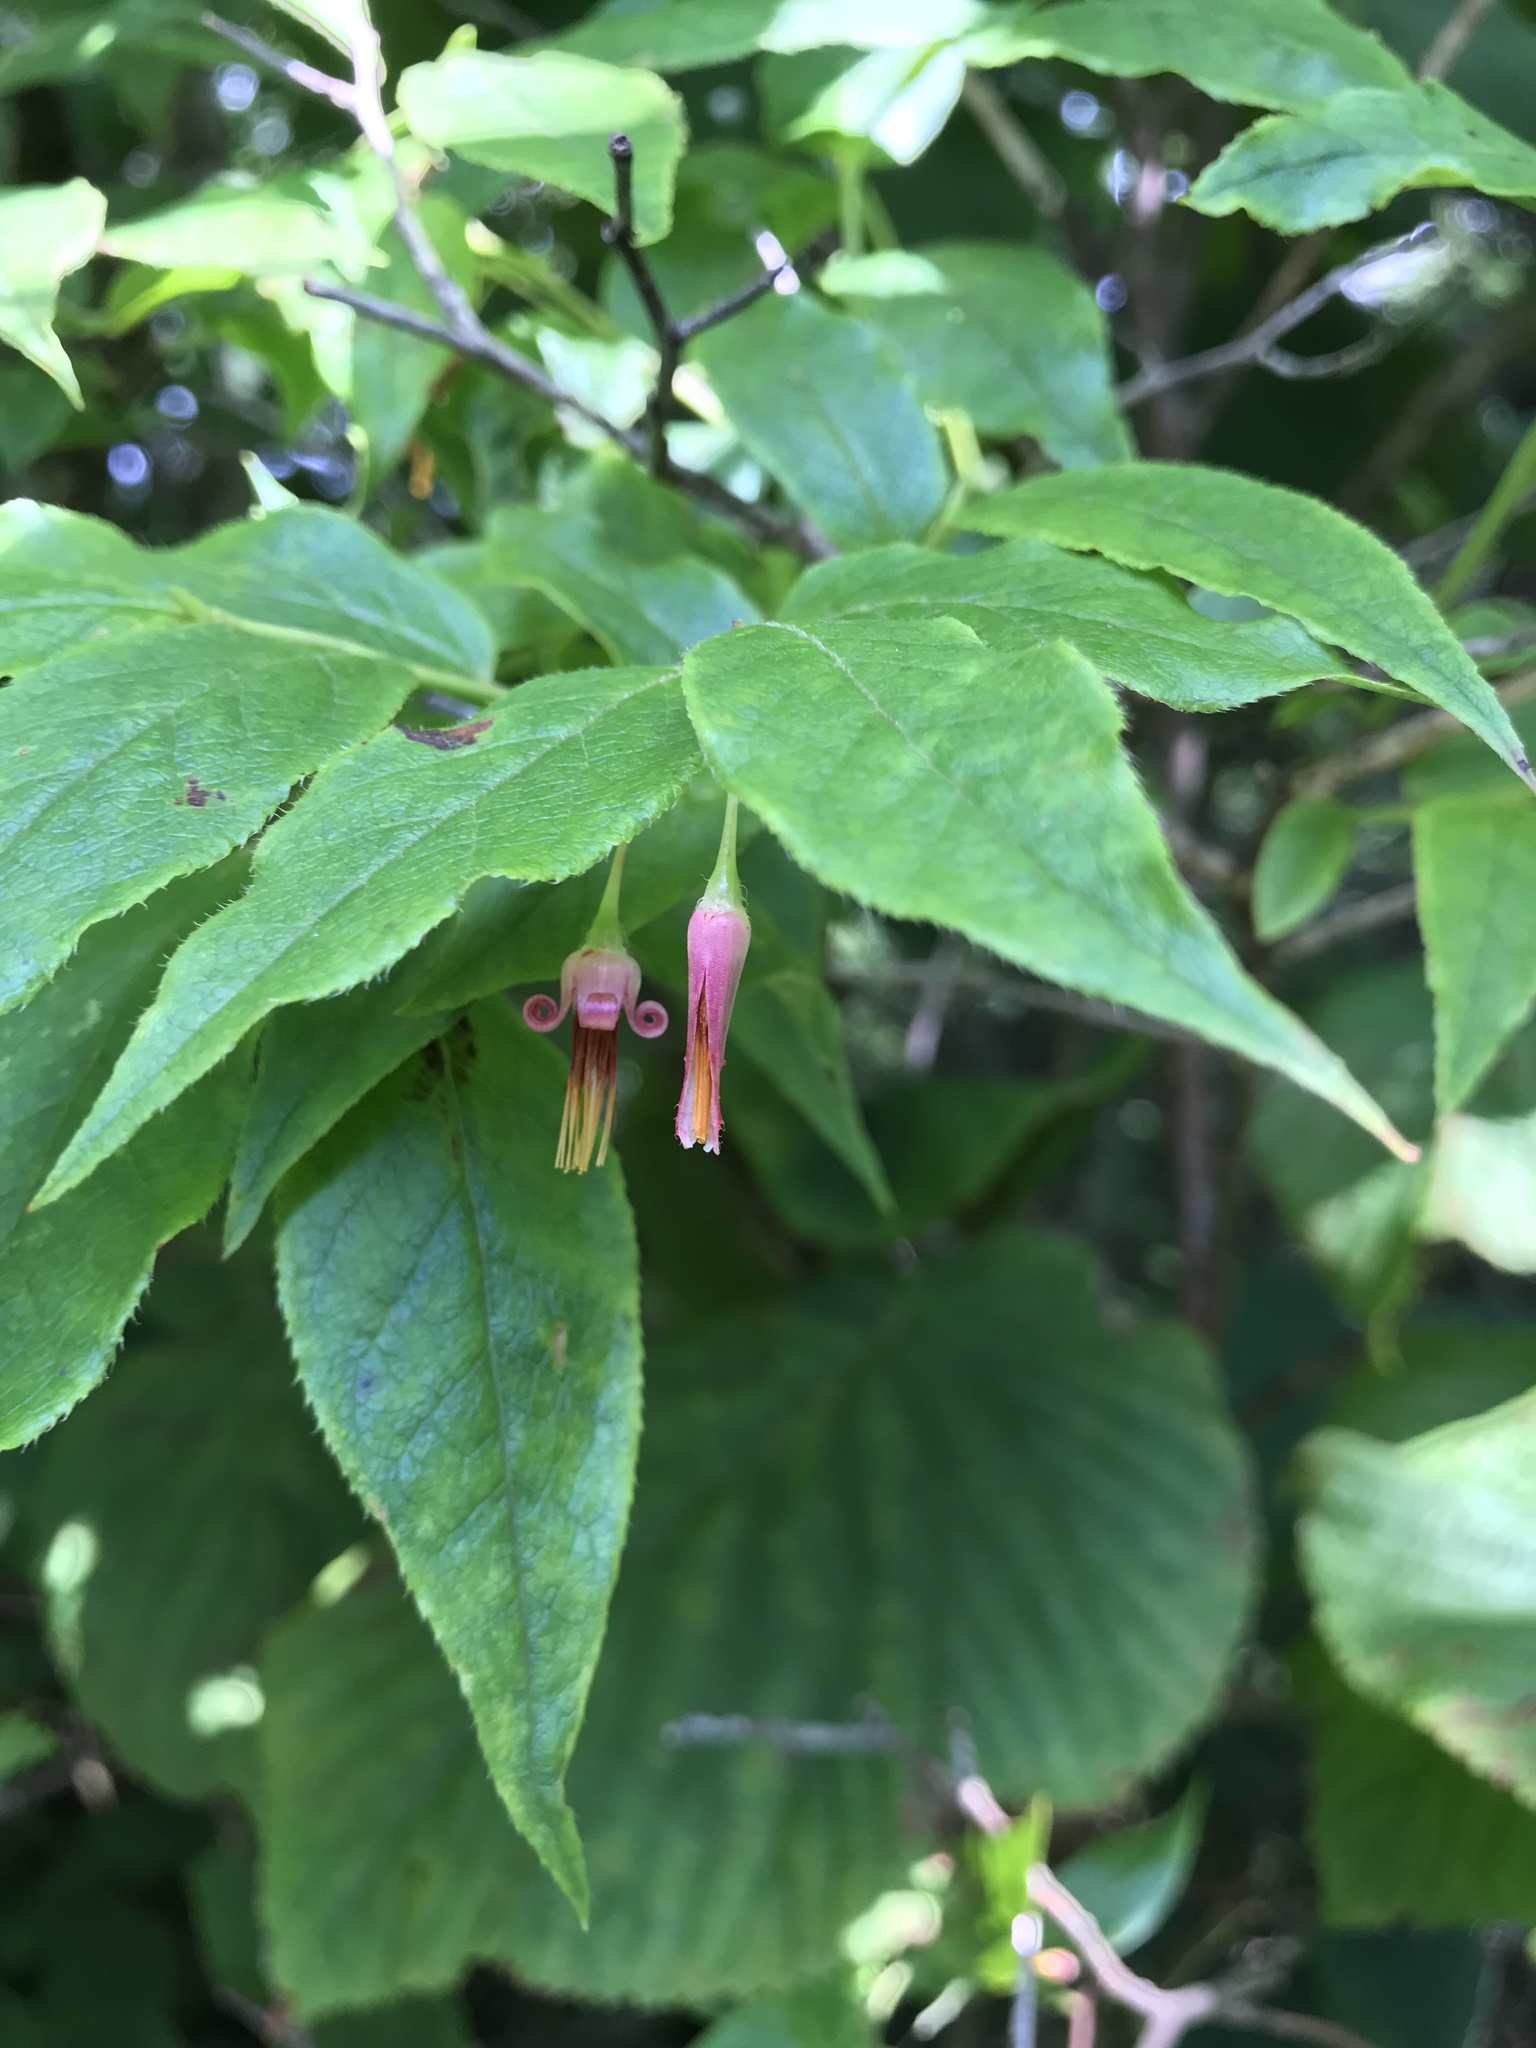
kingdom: Plantae
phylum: Tracheophyta
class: Magnoliopsida
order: Ericales
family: Ericaceae
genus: Vaccinium
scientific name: Vaccinium erythrocarpum
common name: Bearberry
